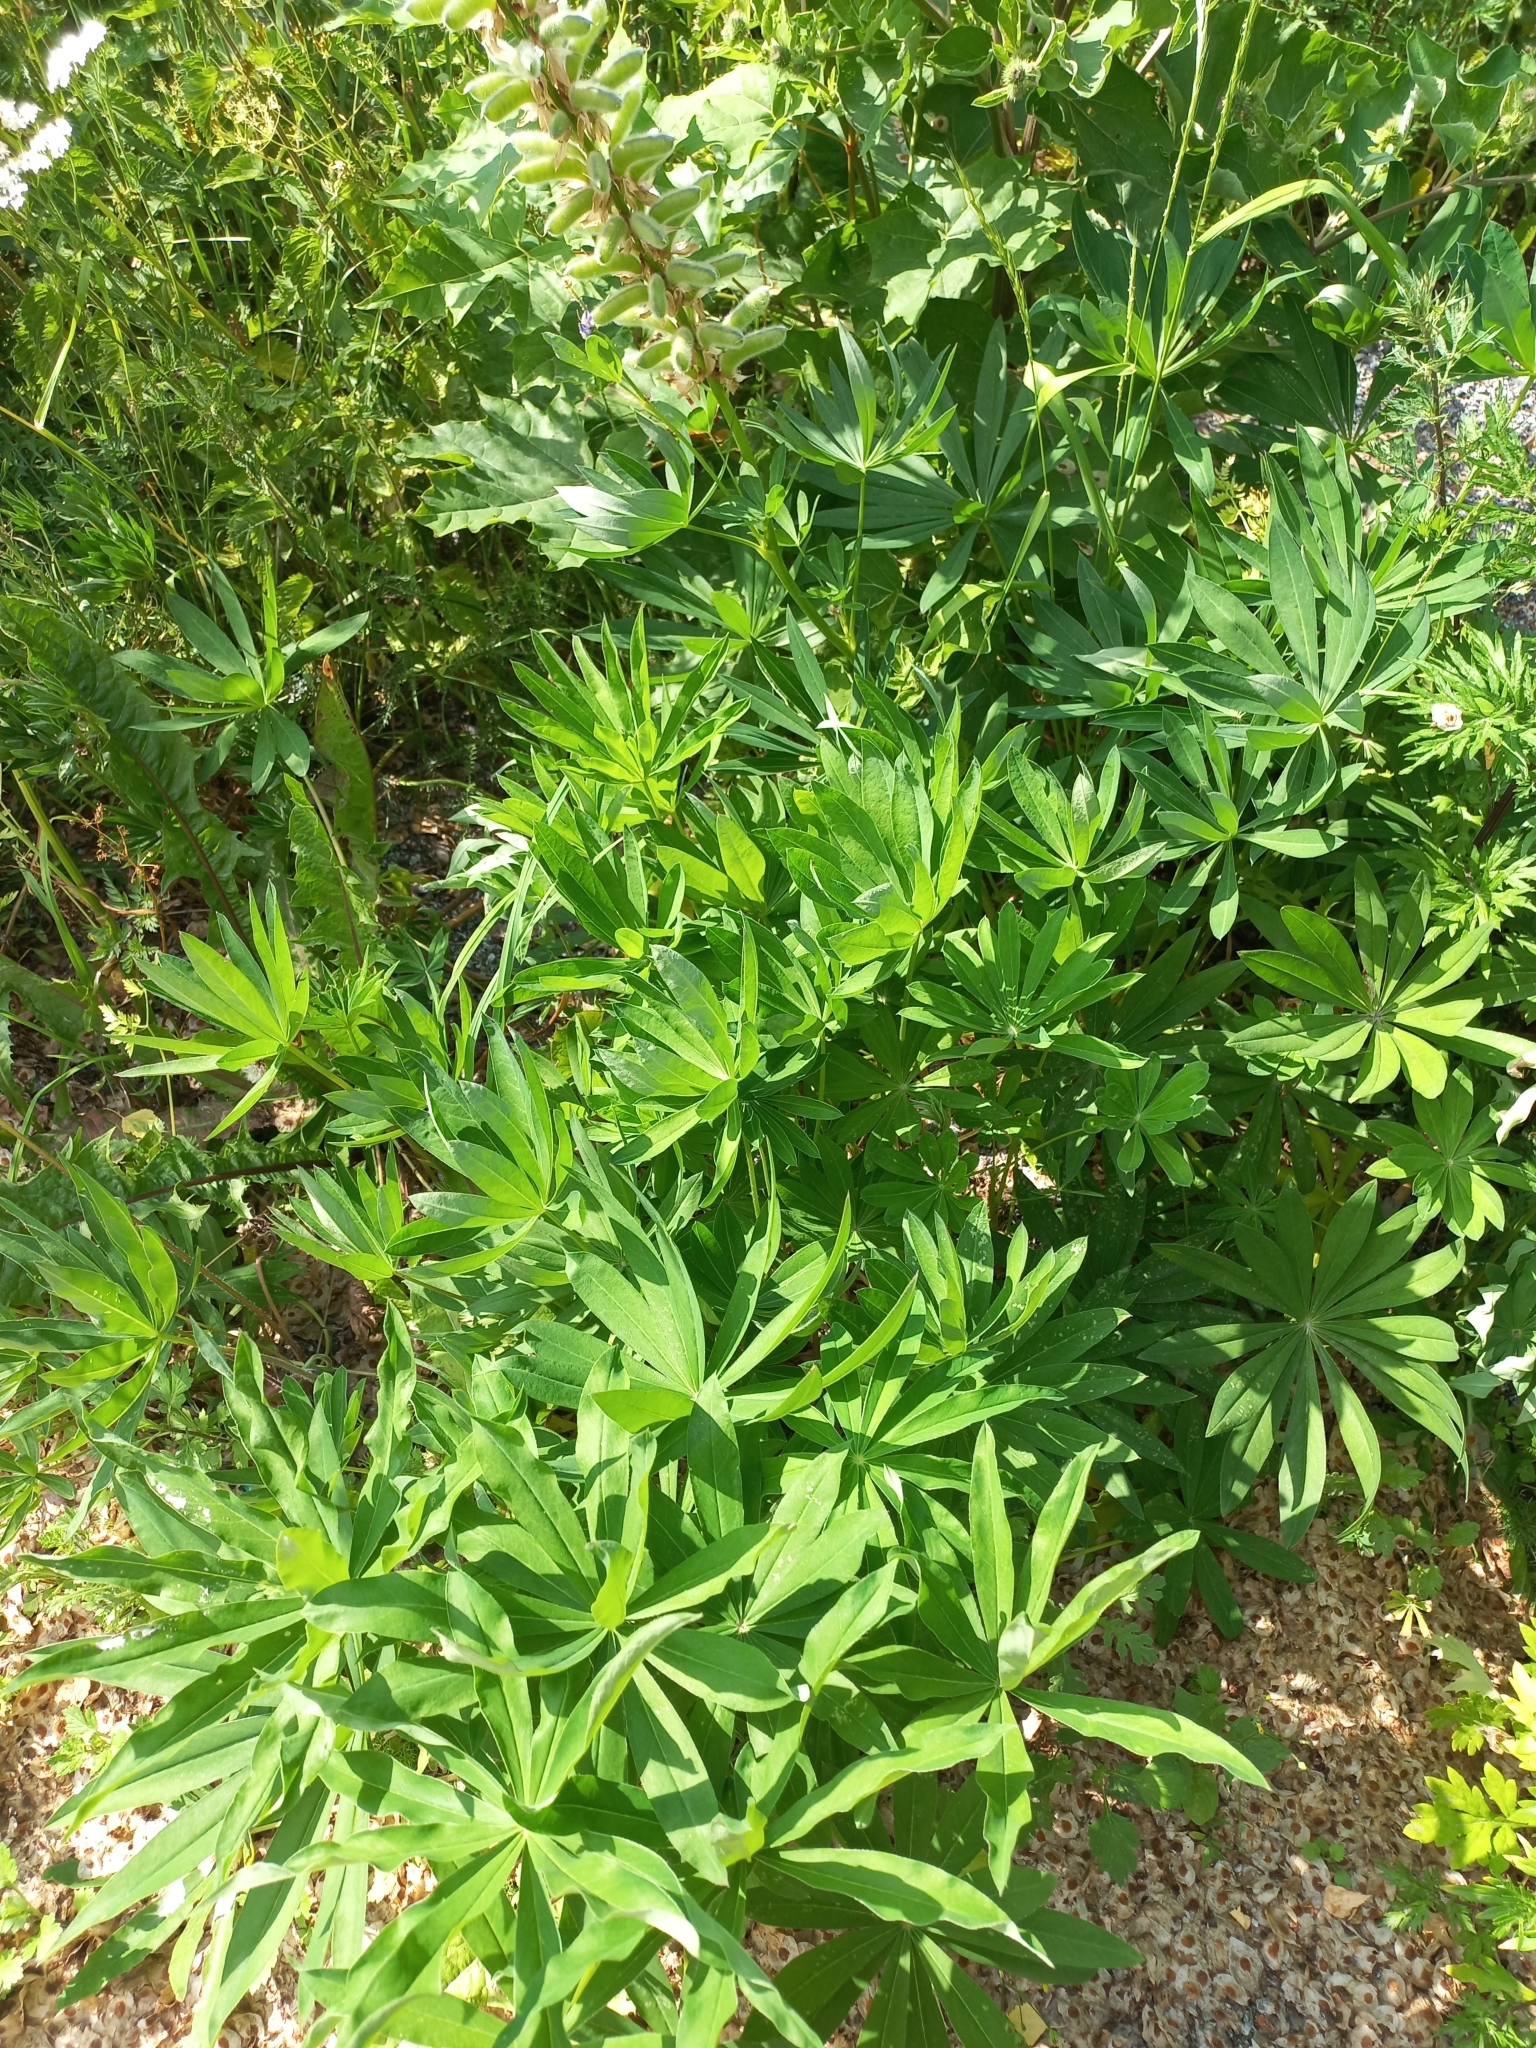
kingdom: Plantae
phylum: Tracheophyta
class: Magnoliopsida
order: Fabales
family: Fabaceae
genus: Lupinus
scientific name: Lupinus polyphyllus
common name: Garden lupin
